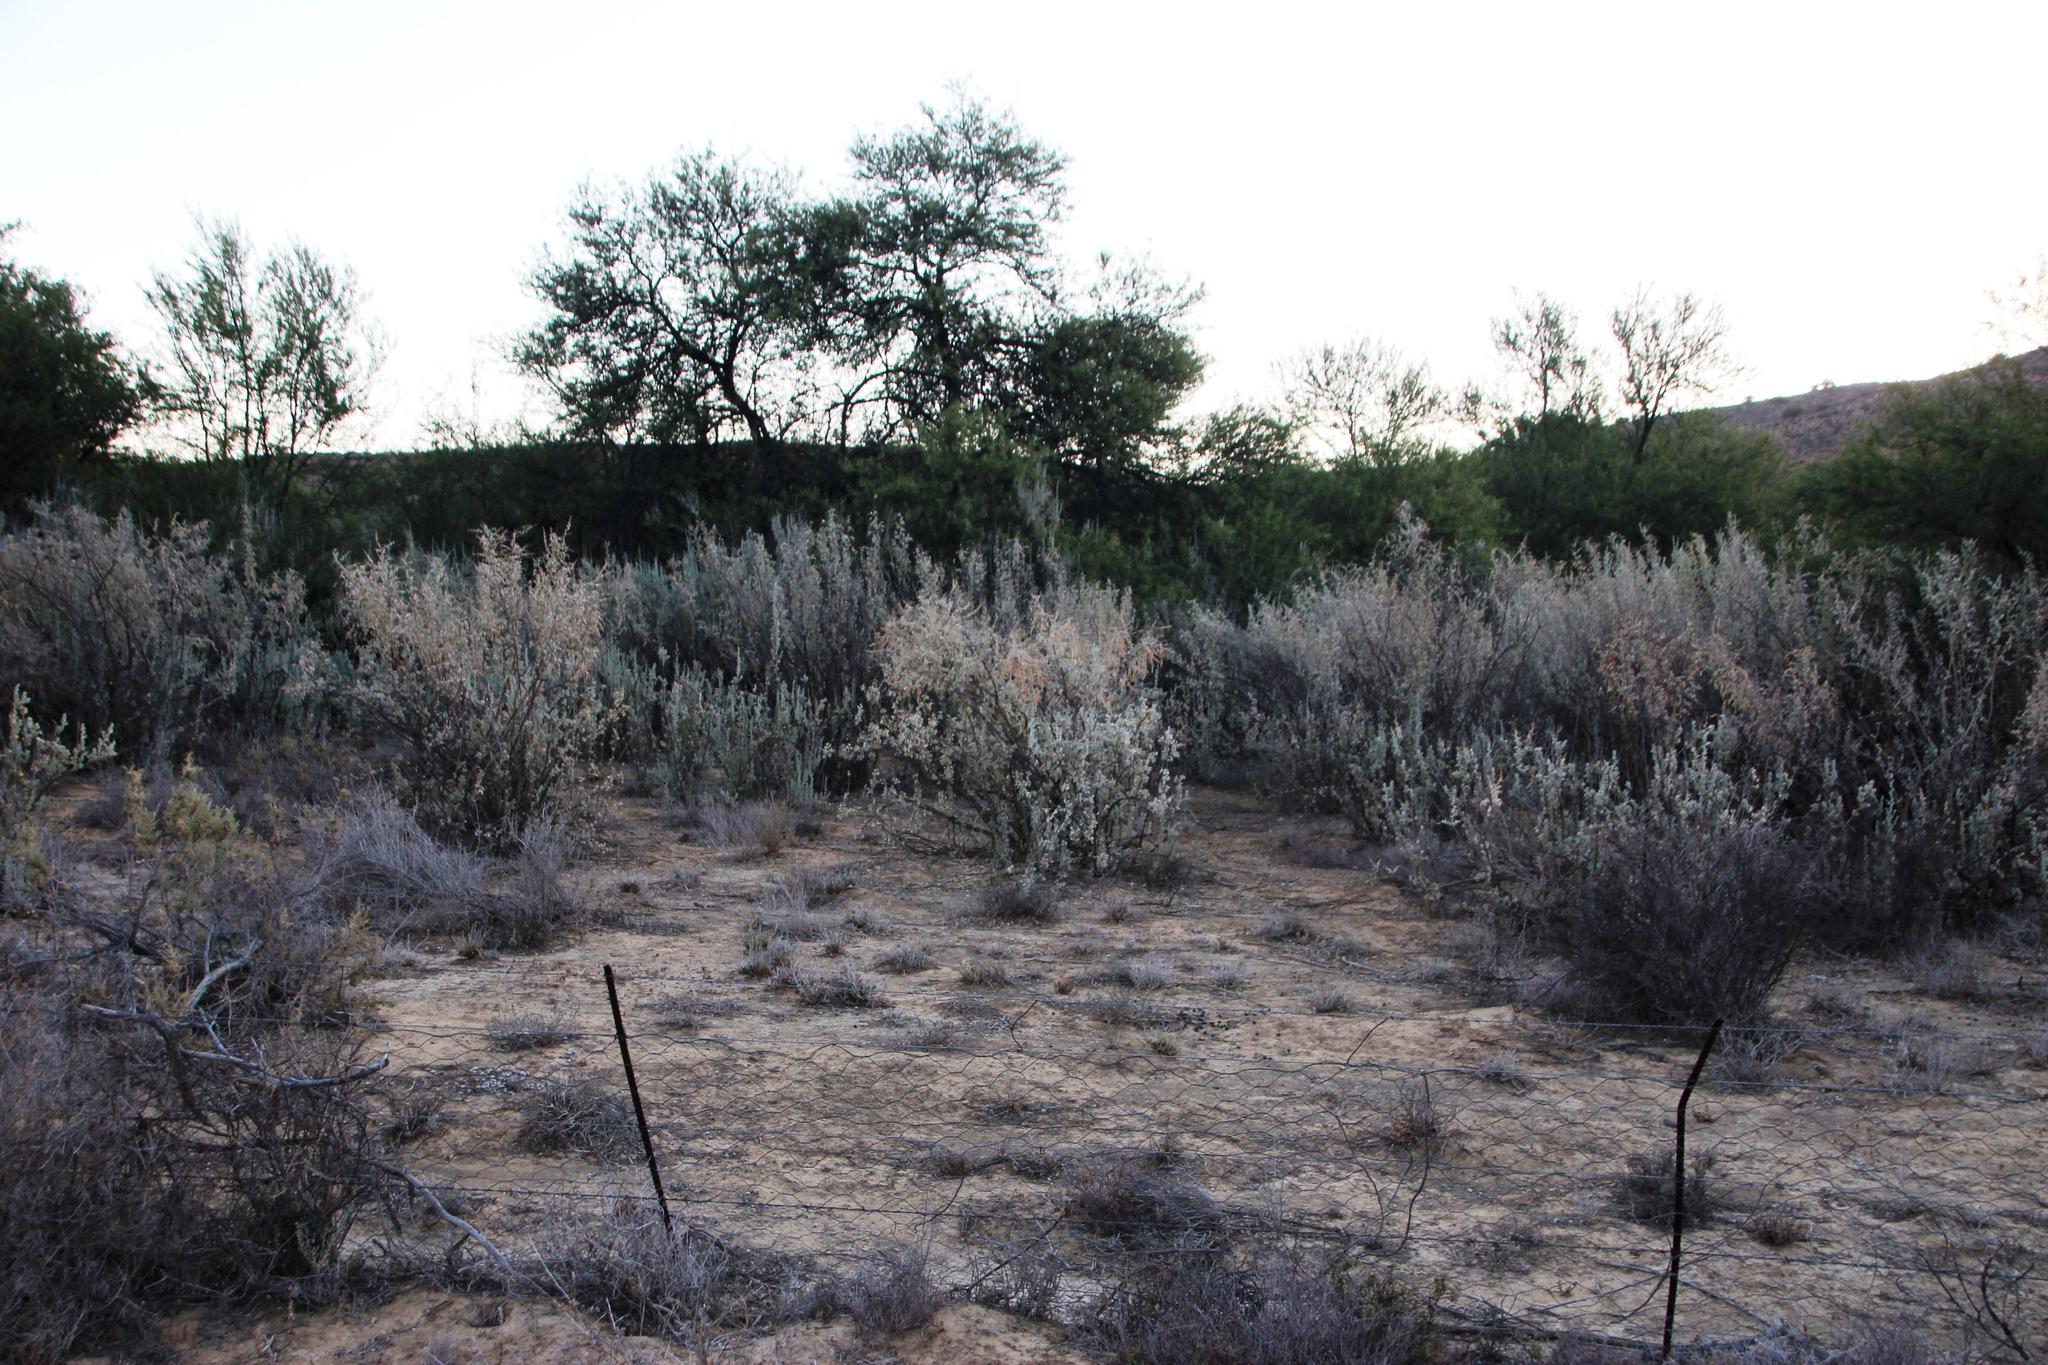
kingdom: Plantae
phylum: Tracheophyta
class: Magnoliopsida
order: Caryophyllales
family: Amaranthaceae
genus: Atriplex
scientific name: Atriplex nummularia
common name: Bluegreen saltbush
